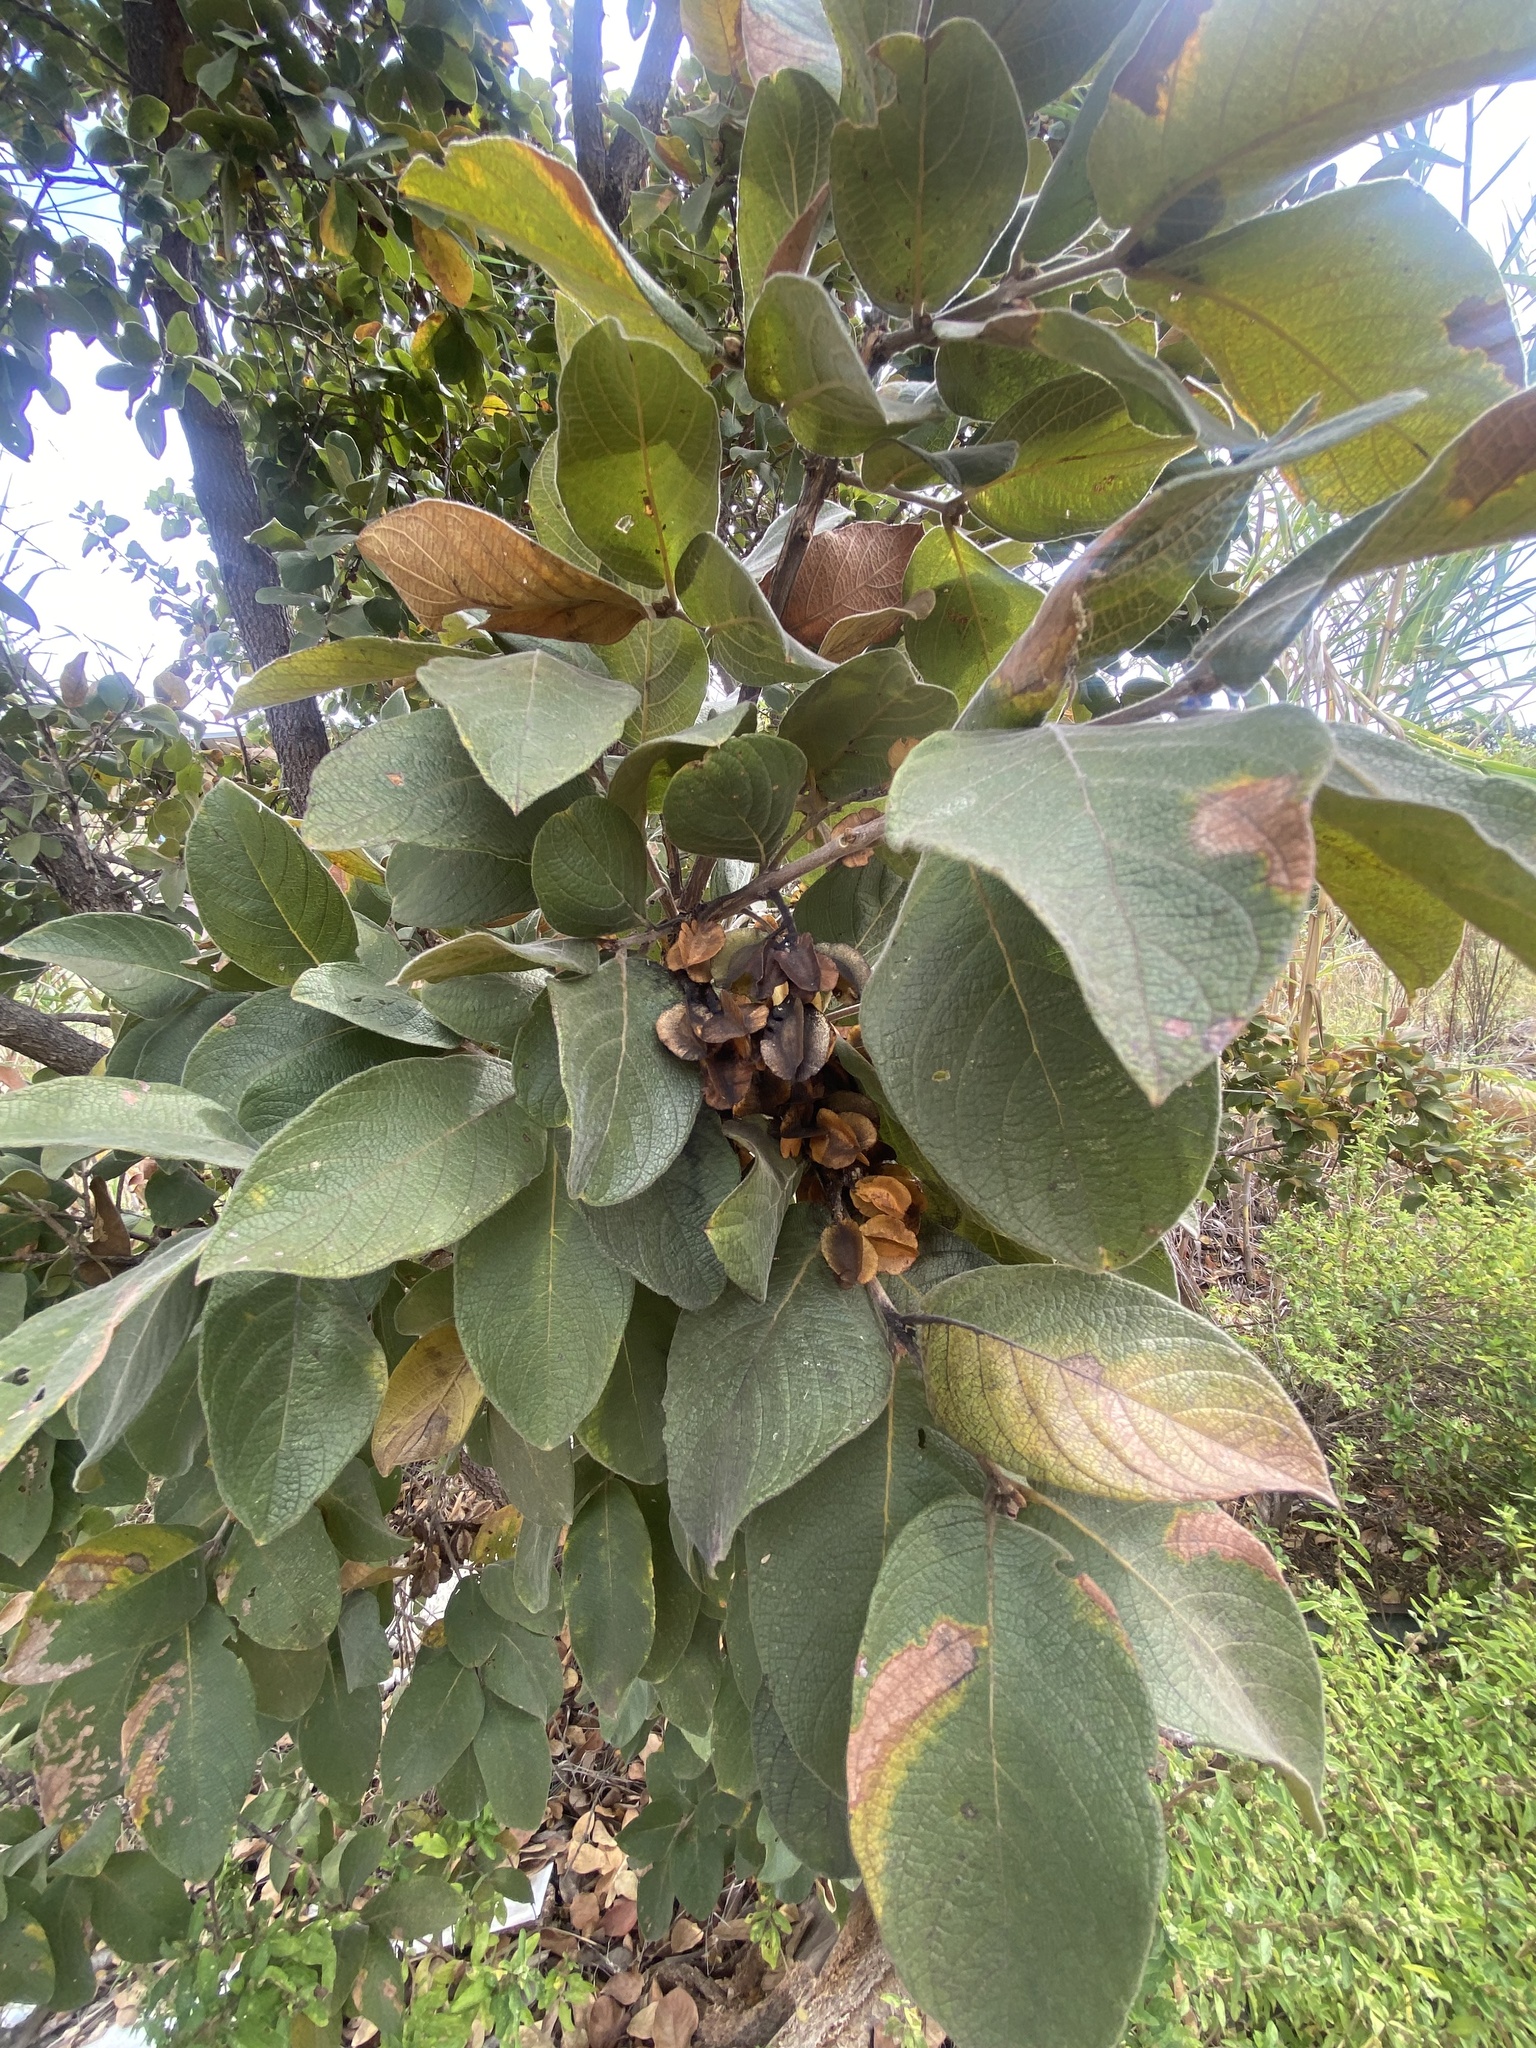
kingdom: Plantae
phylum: Tracheophyta
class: Magnoliopsida
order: Myrtales
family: Combretaceae
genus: Combretum
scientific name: Combretum molle
